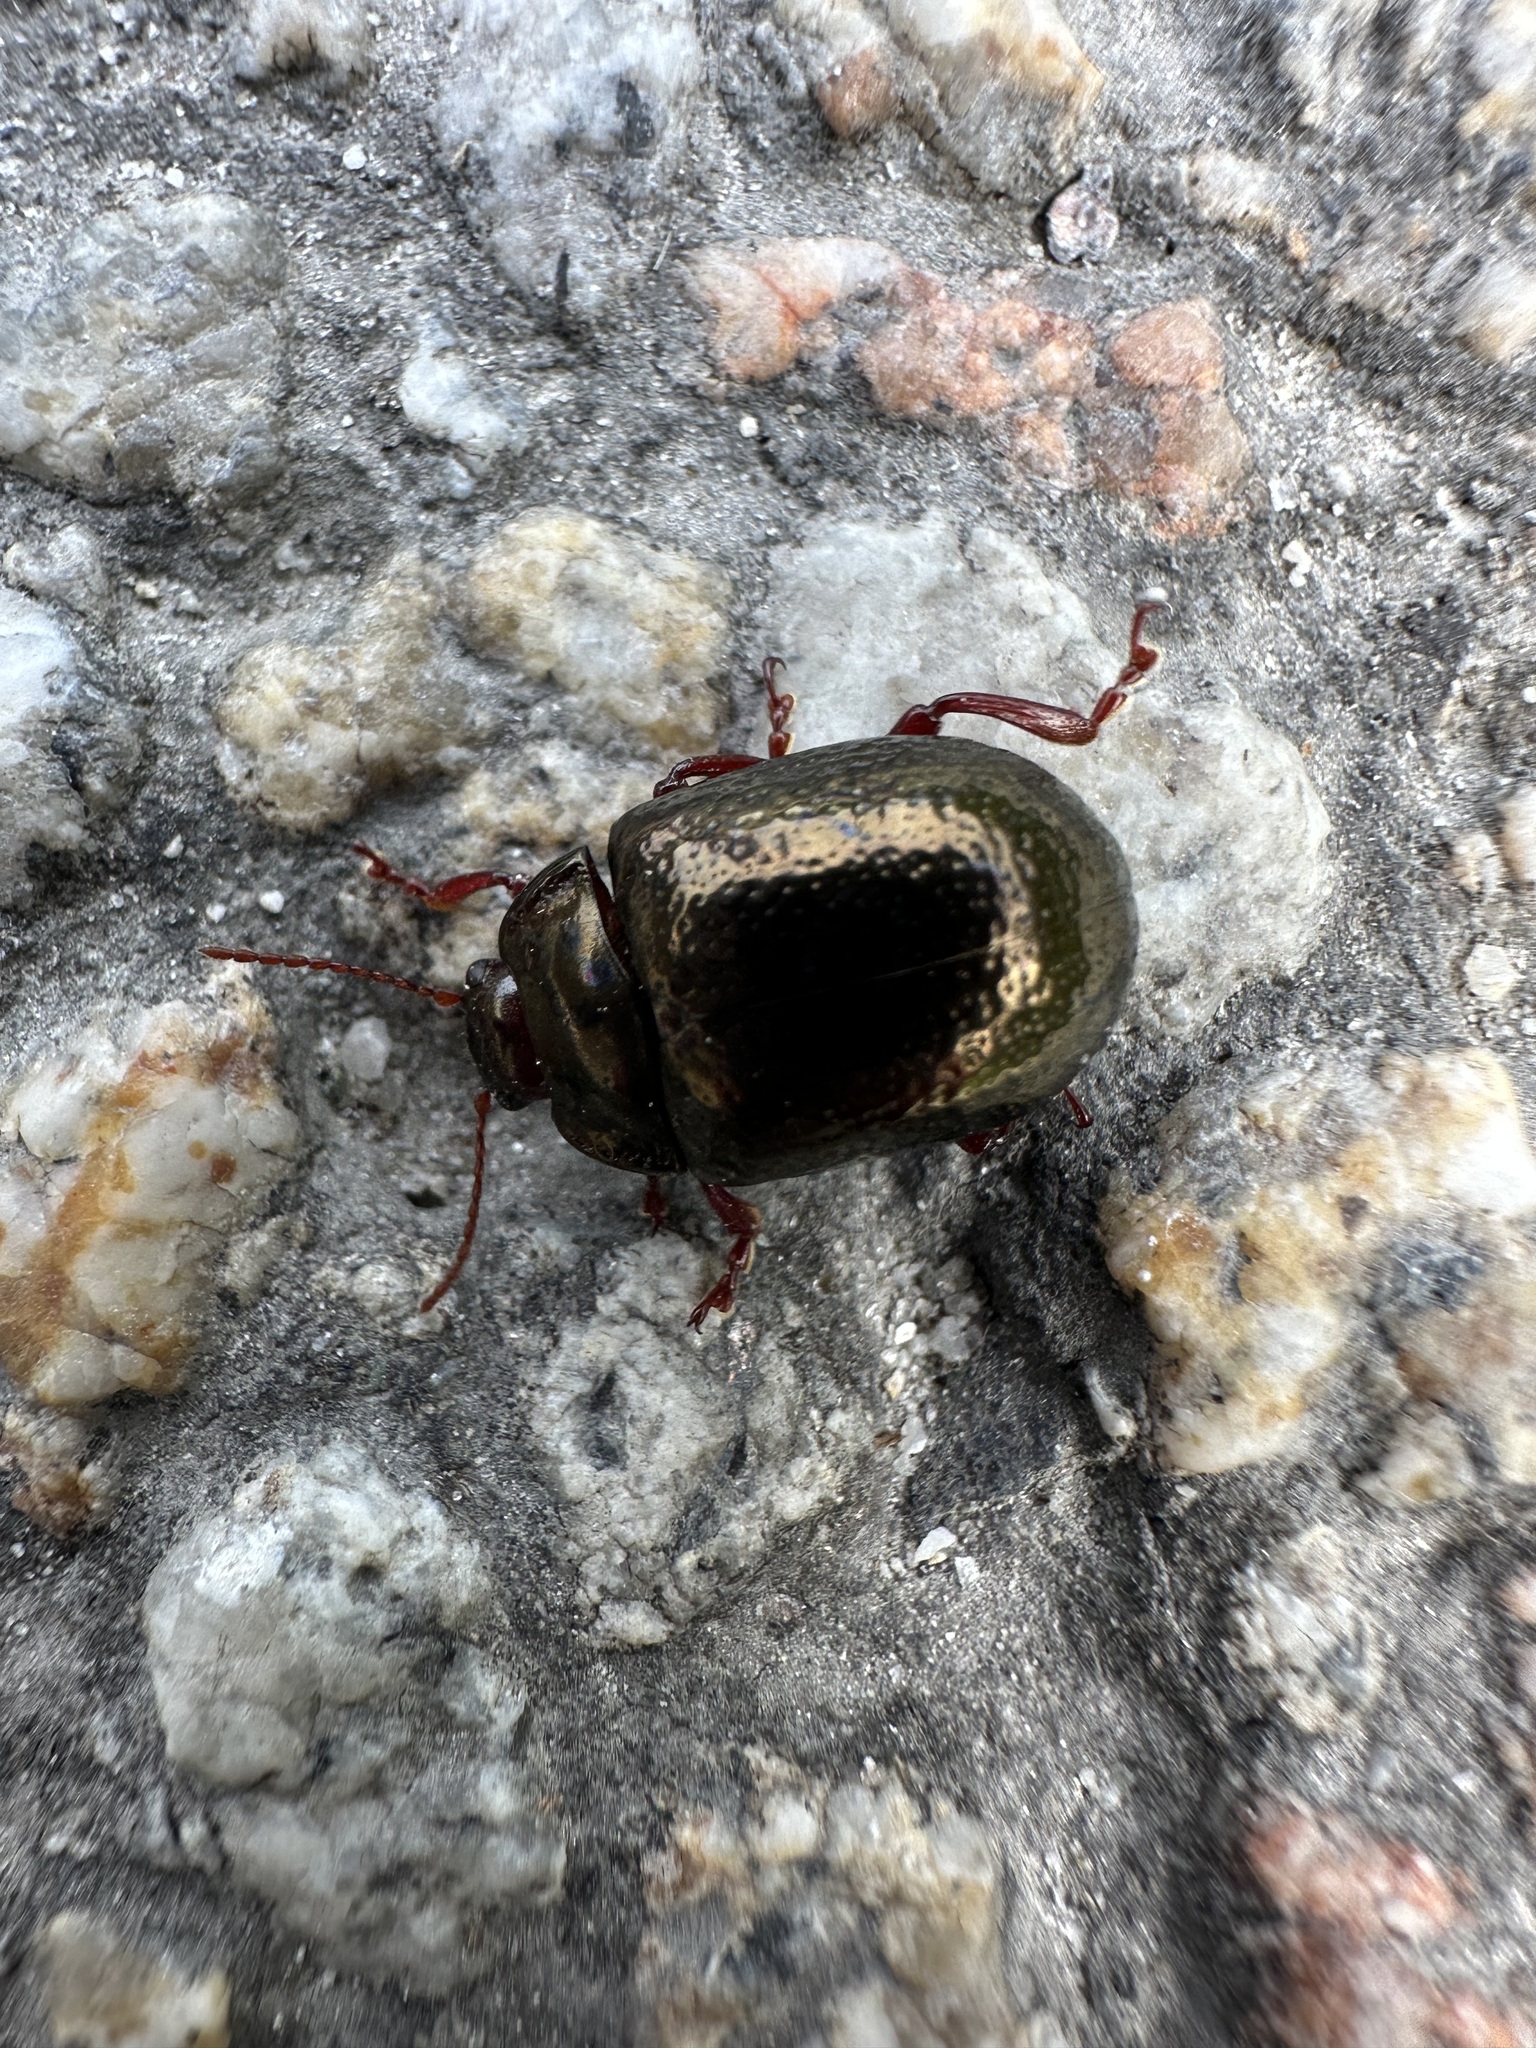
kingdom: Animalia
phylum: Arthropoda
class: Insecta
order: Coleoptera
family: Chrysomelidae
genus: Chrysolina
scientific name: Chrysolina bankii
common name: Leaf beetle
